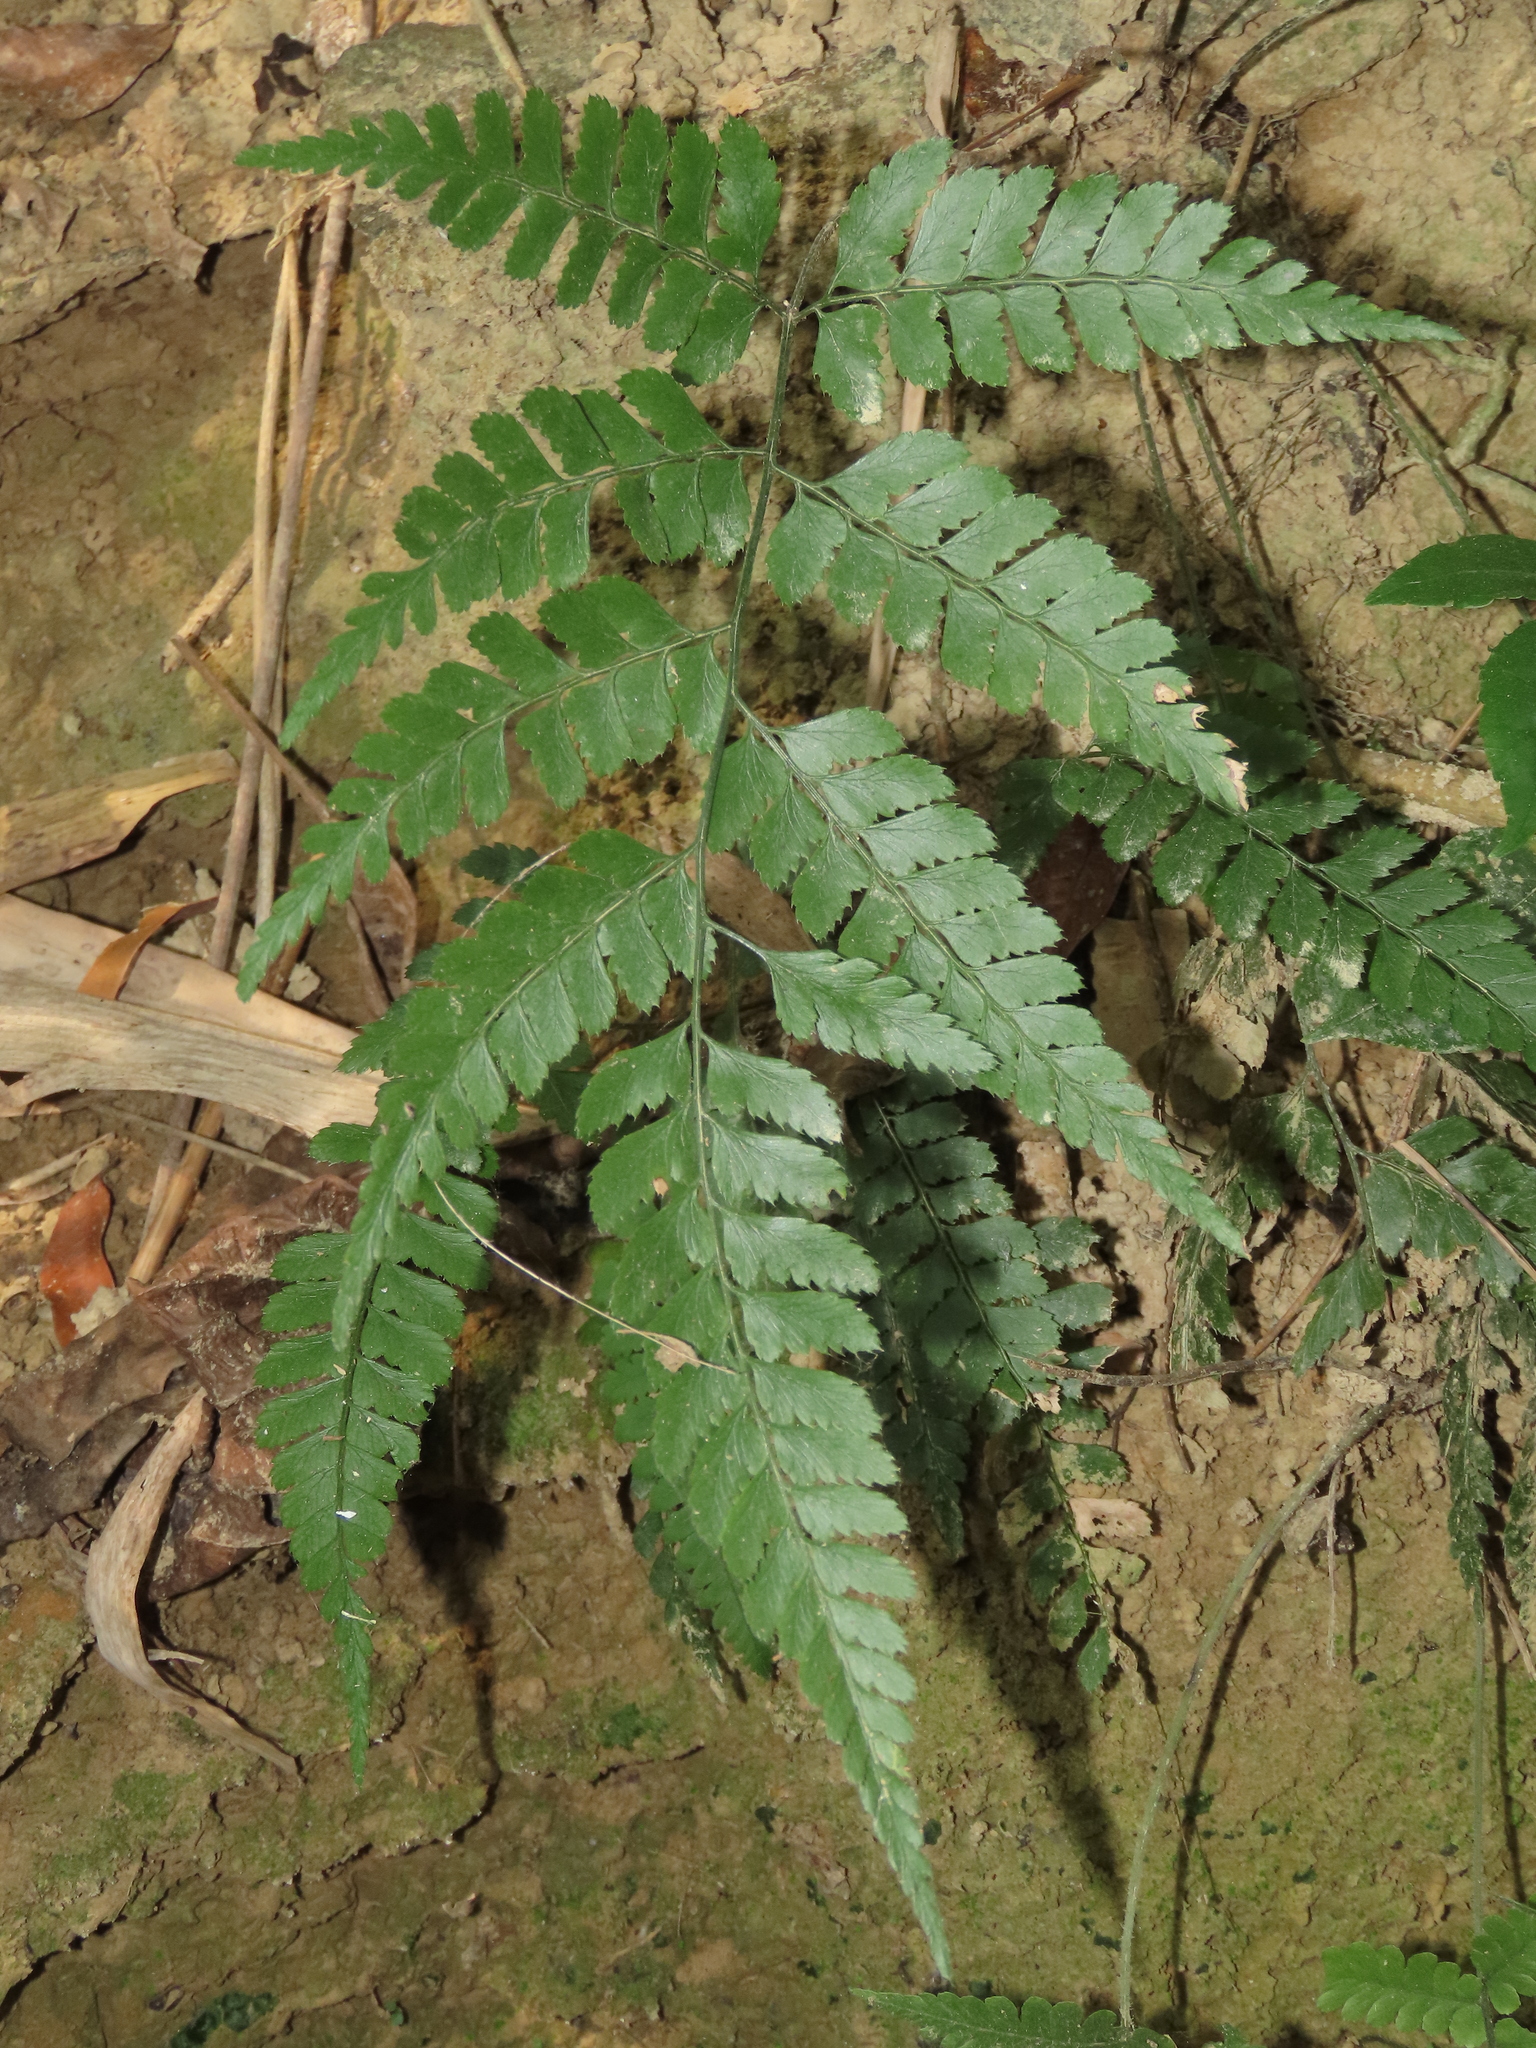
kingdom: Plantae
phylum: Tracheophyta
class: Polypodiopsida
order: Polypodiales
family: Dryopteridaceae
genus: Arachniodes
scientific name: Arachniodes rhomboidea
